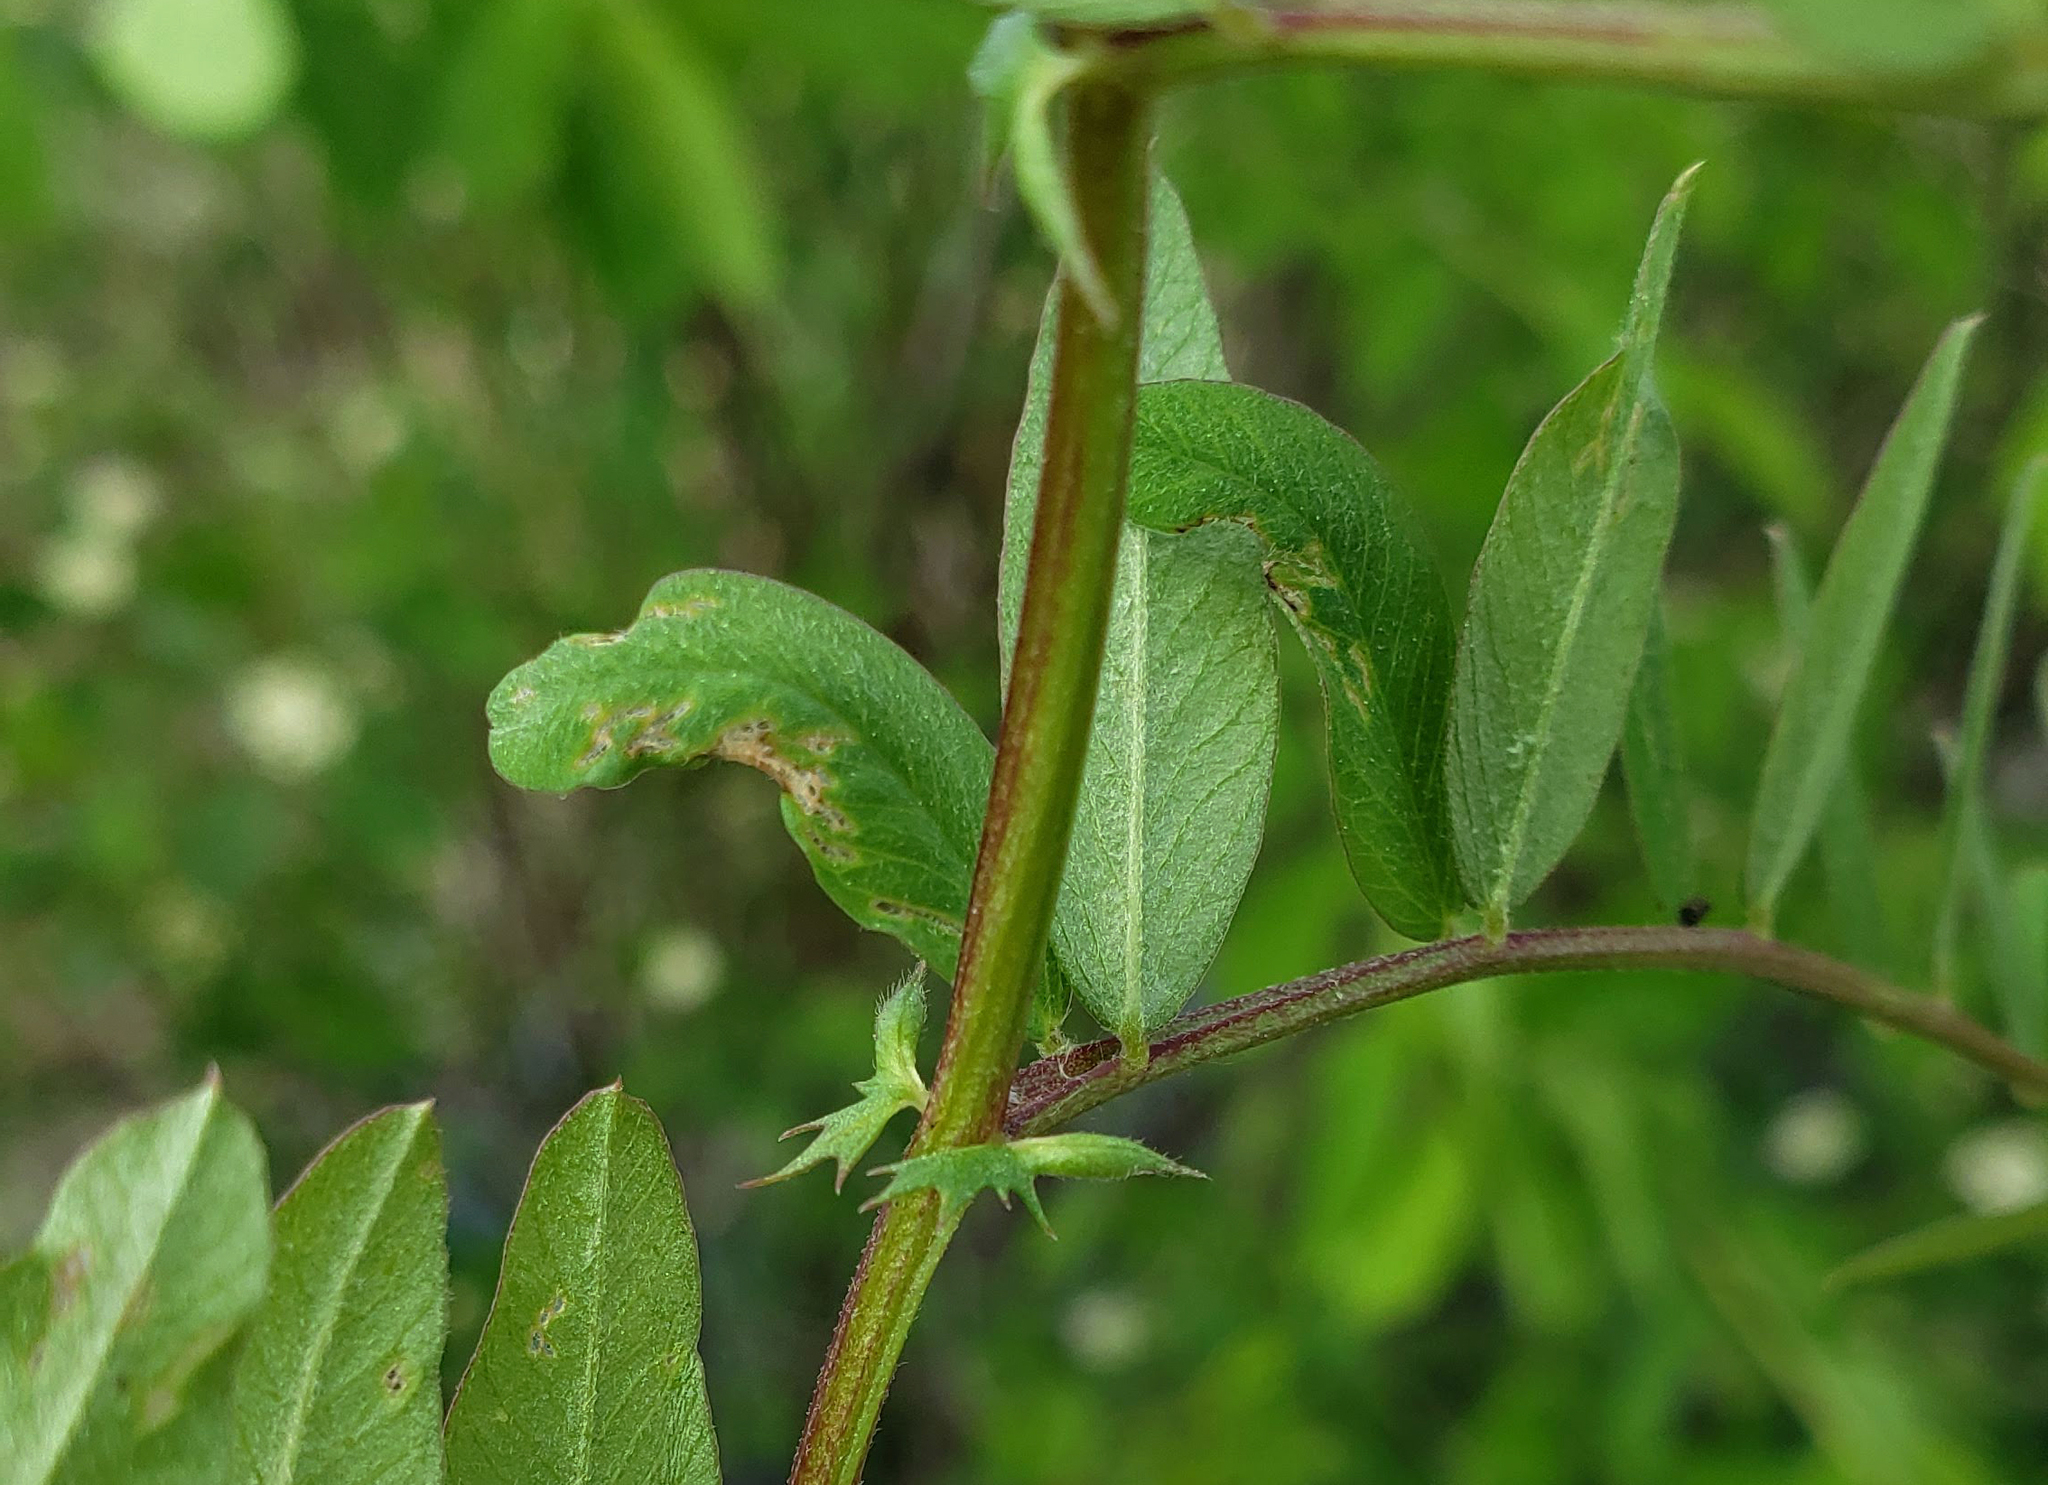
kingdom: Plantae
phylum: Tracheophyta
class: Magnoliopsida
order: Fabales
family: Fabaceae
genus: Vicia
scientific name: Vicia americana
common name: American vetch
